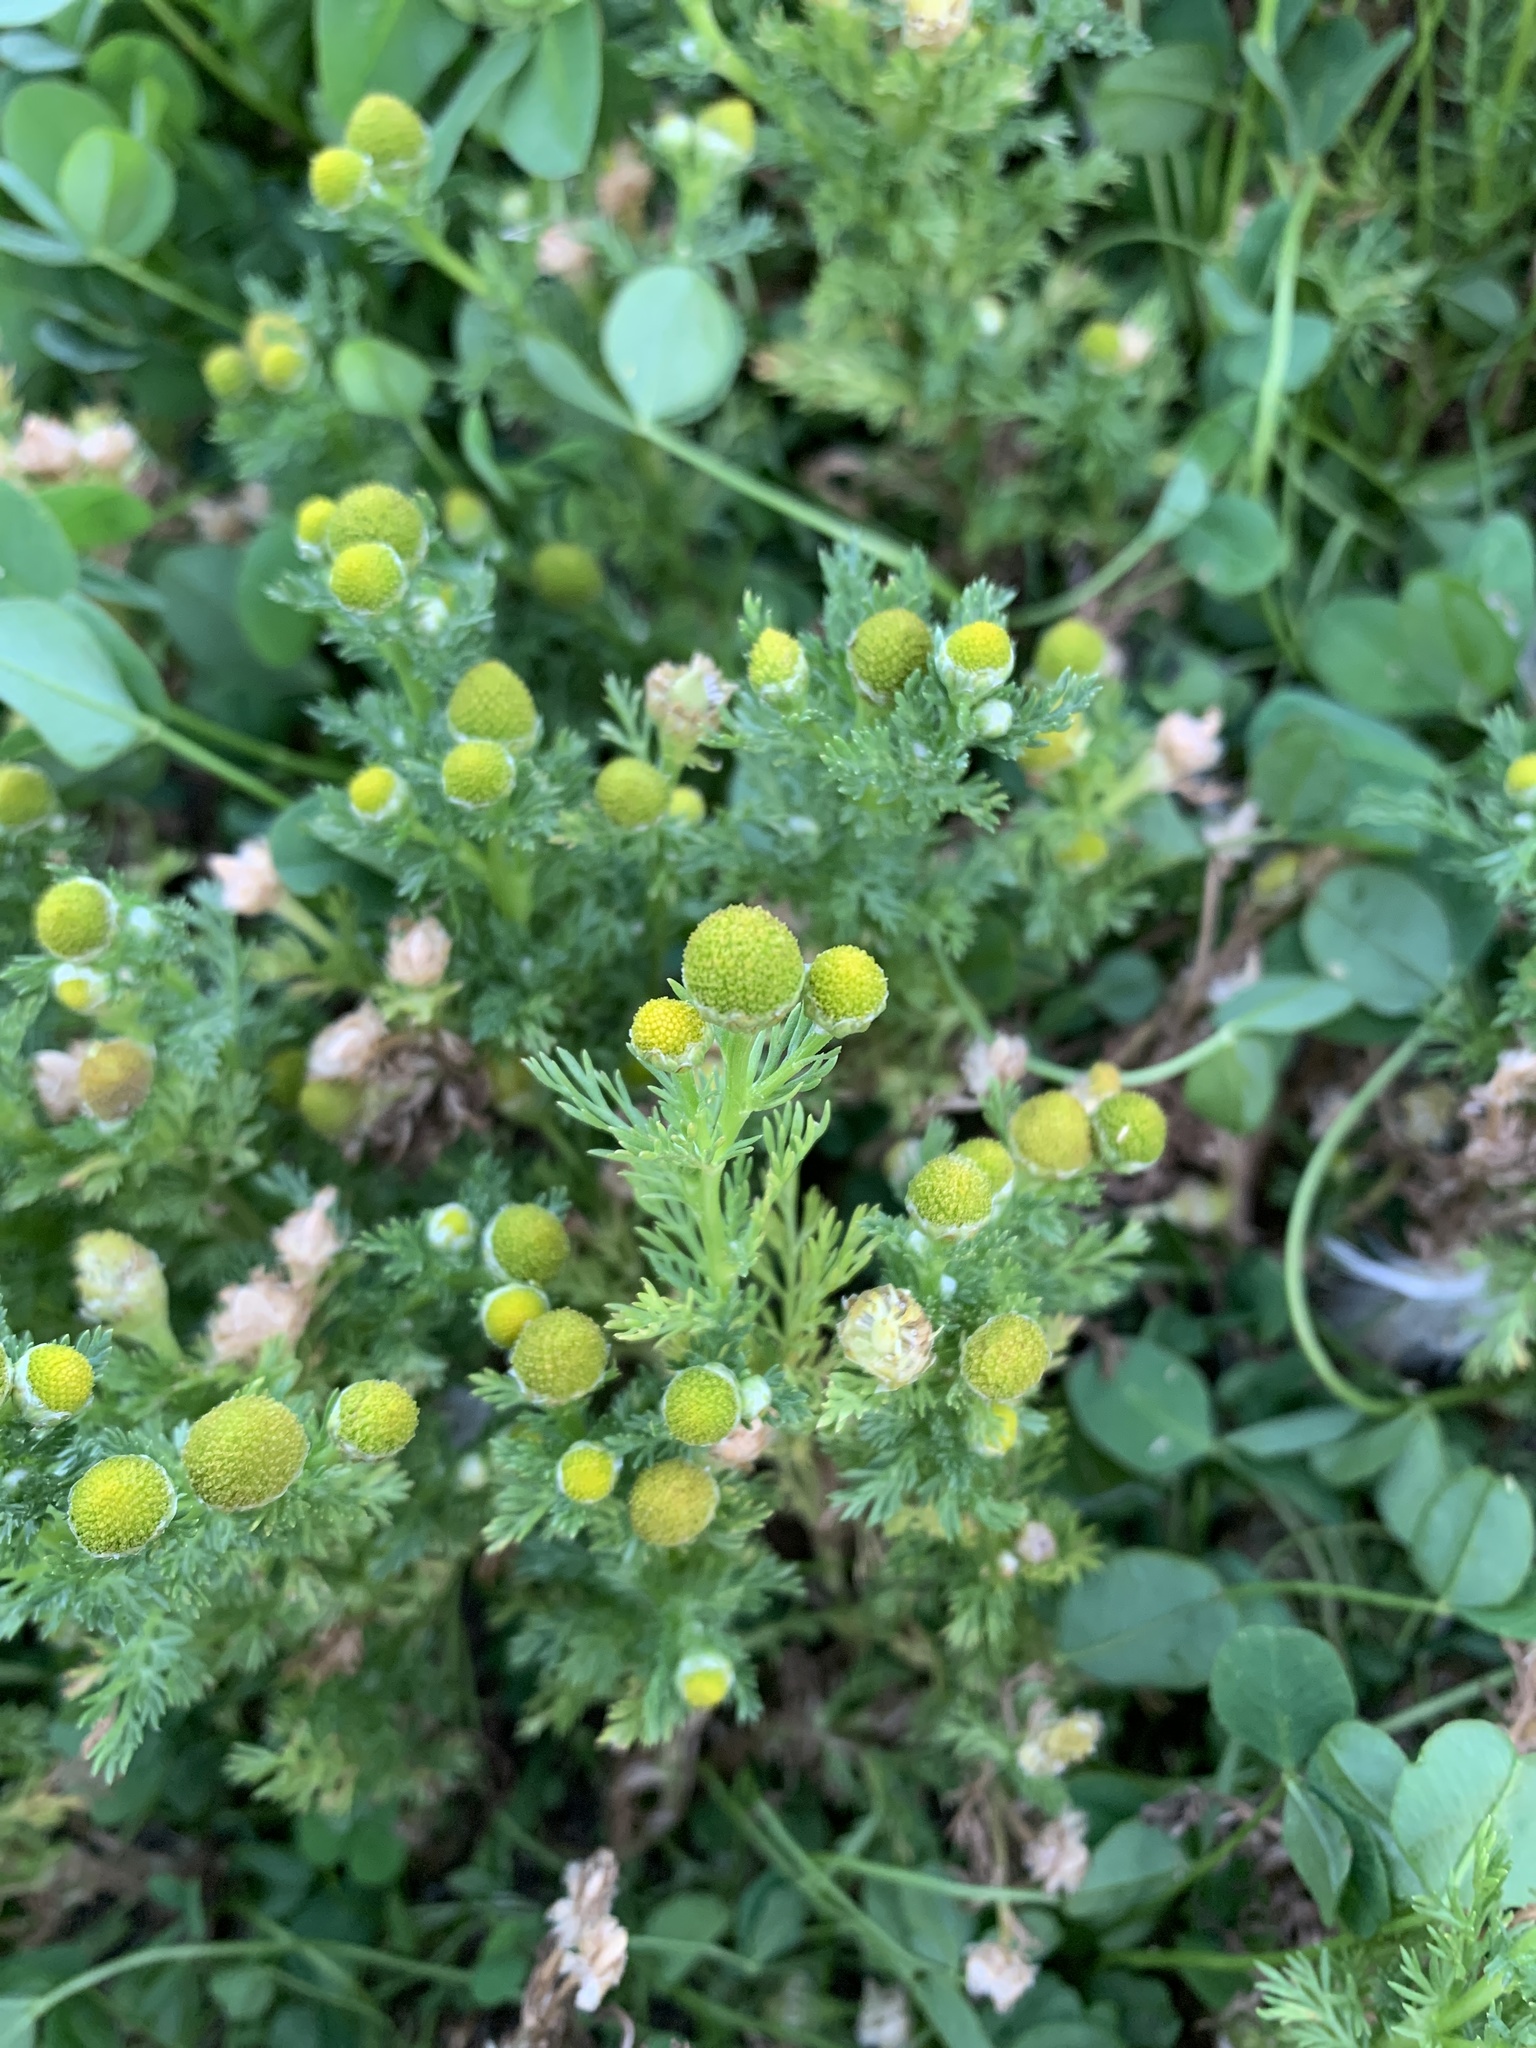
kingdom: Plantae
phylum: Tracheophyta
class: Magnoliopsida
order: Asterales
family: Asteraceae
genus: Matricaria
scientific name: Matricaria discoidea
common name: Disc mayweed
